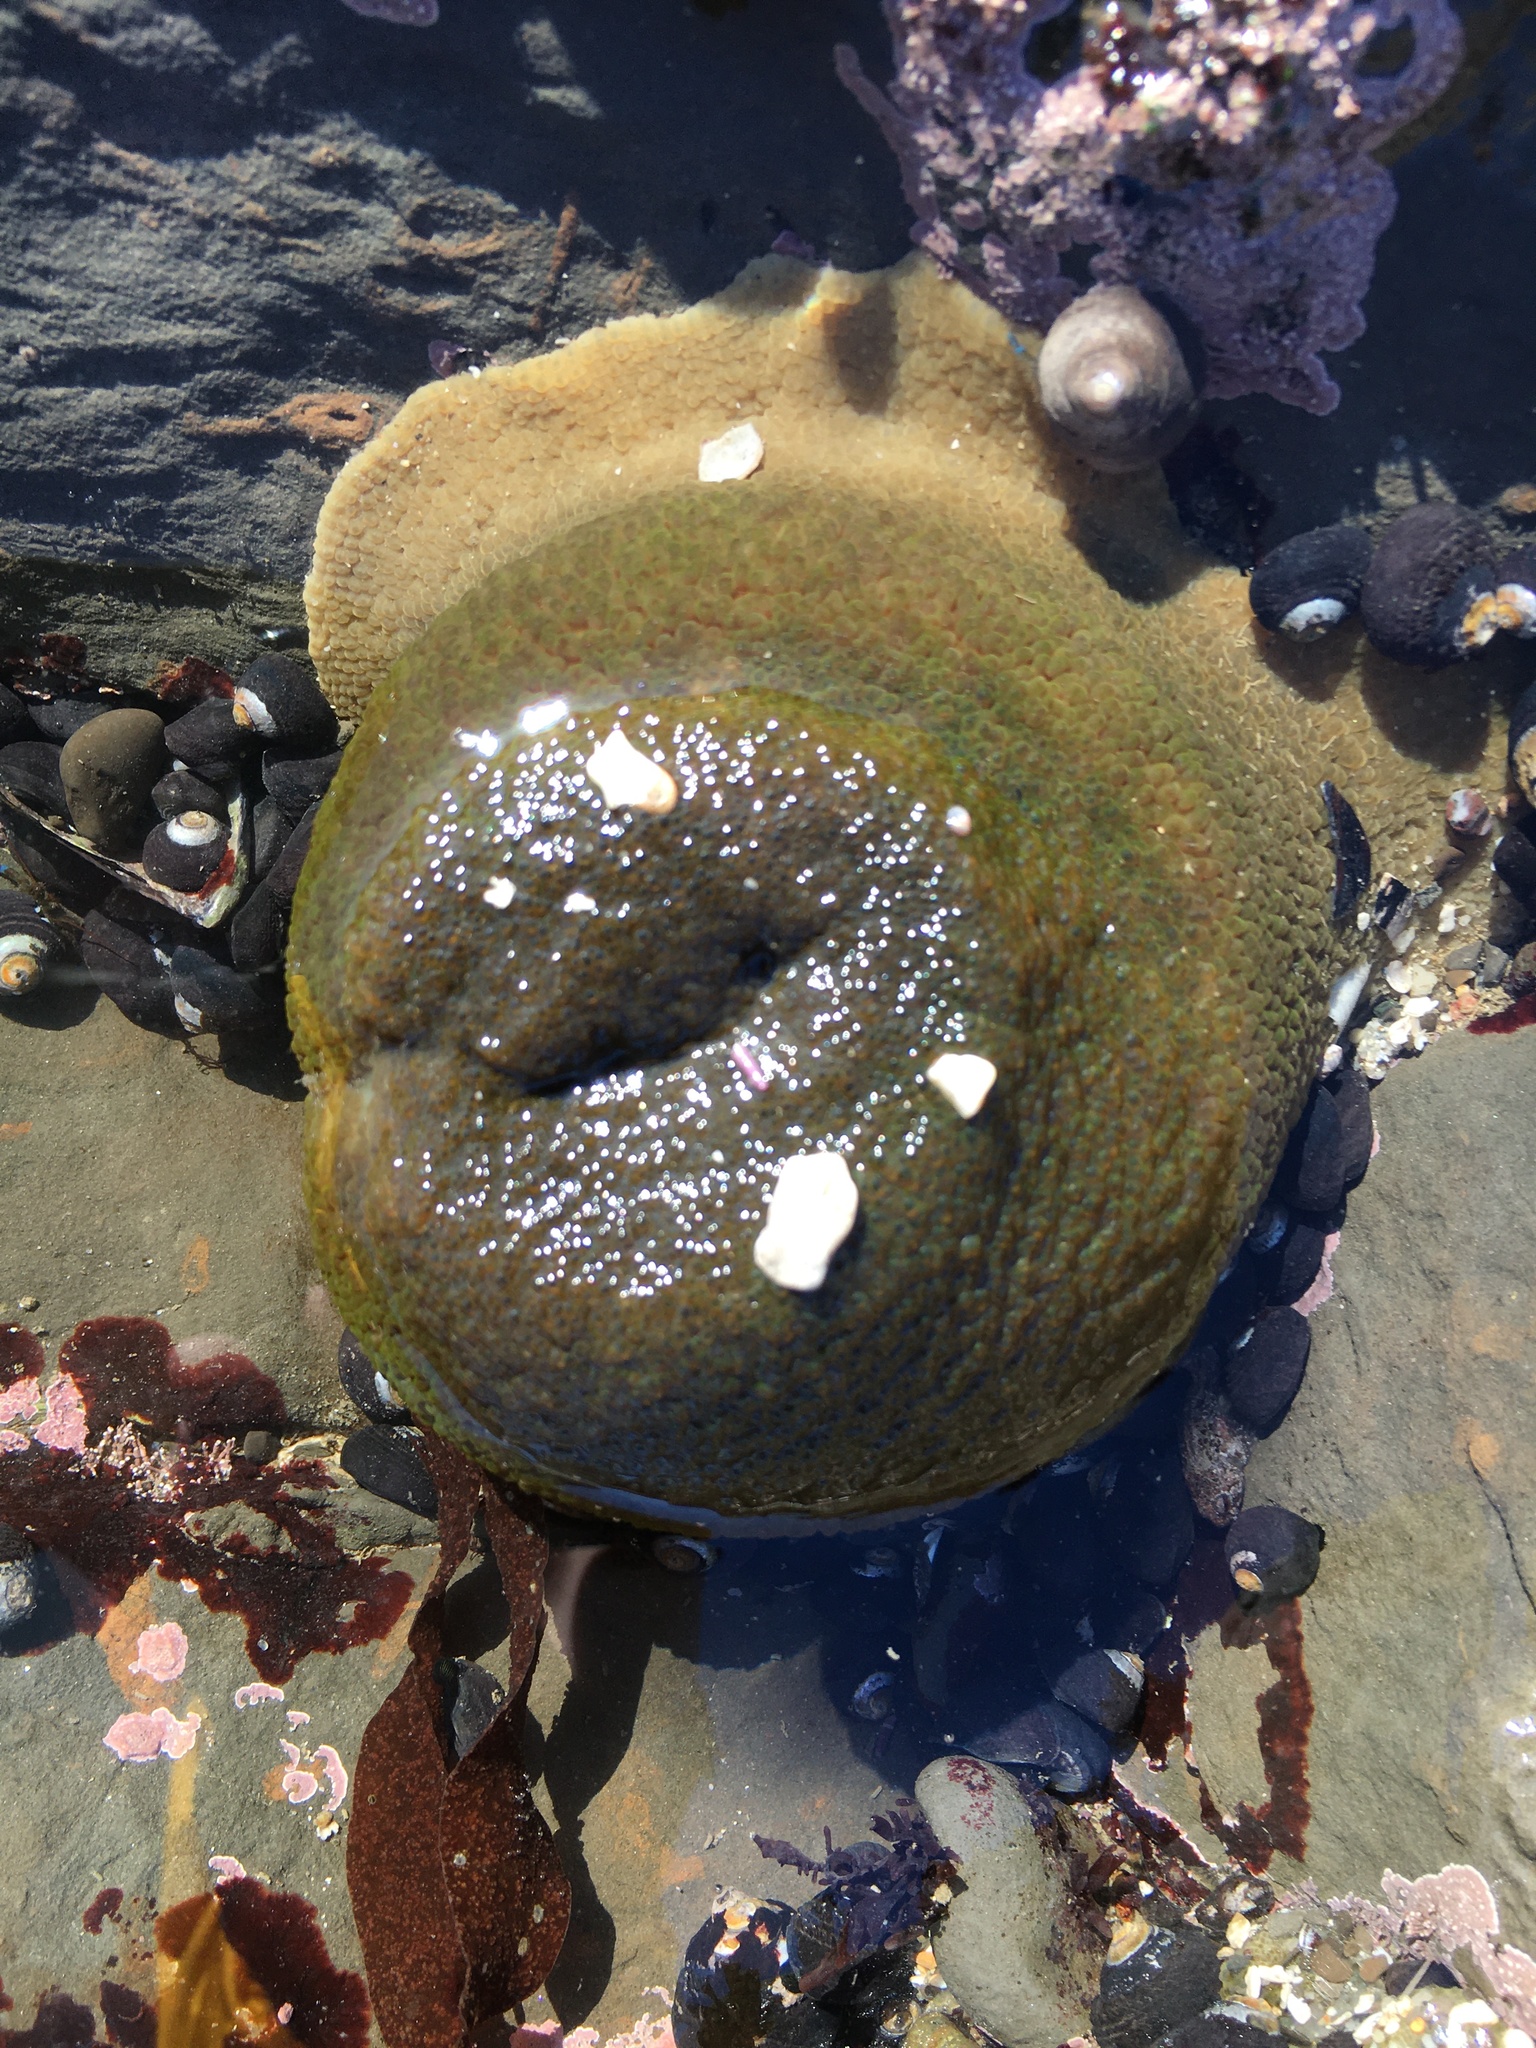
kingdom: Animalia
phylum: Cnidaria
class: Anthozoa
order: Actiniaria
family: Actiniidae
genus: Anthopleura
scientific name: Anthopleura xanthogrammica
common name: Giant green anemone
